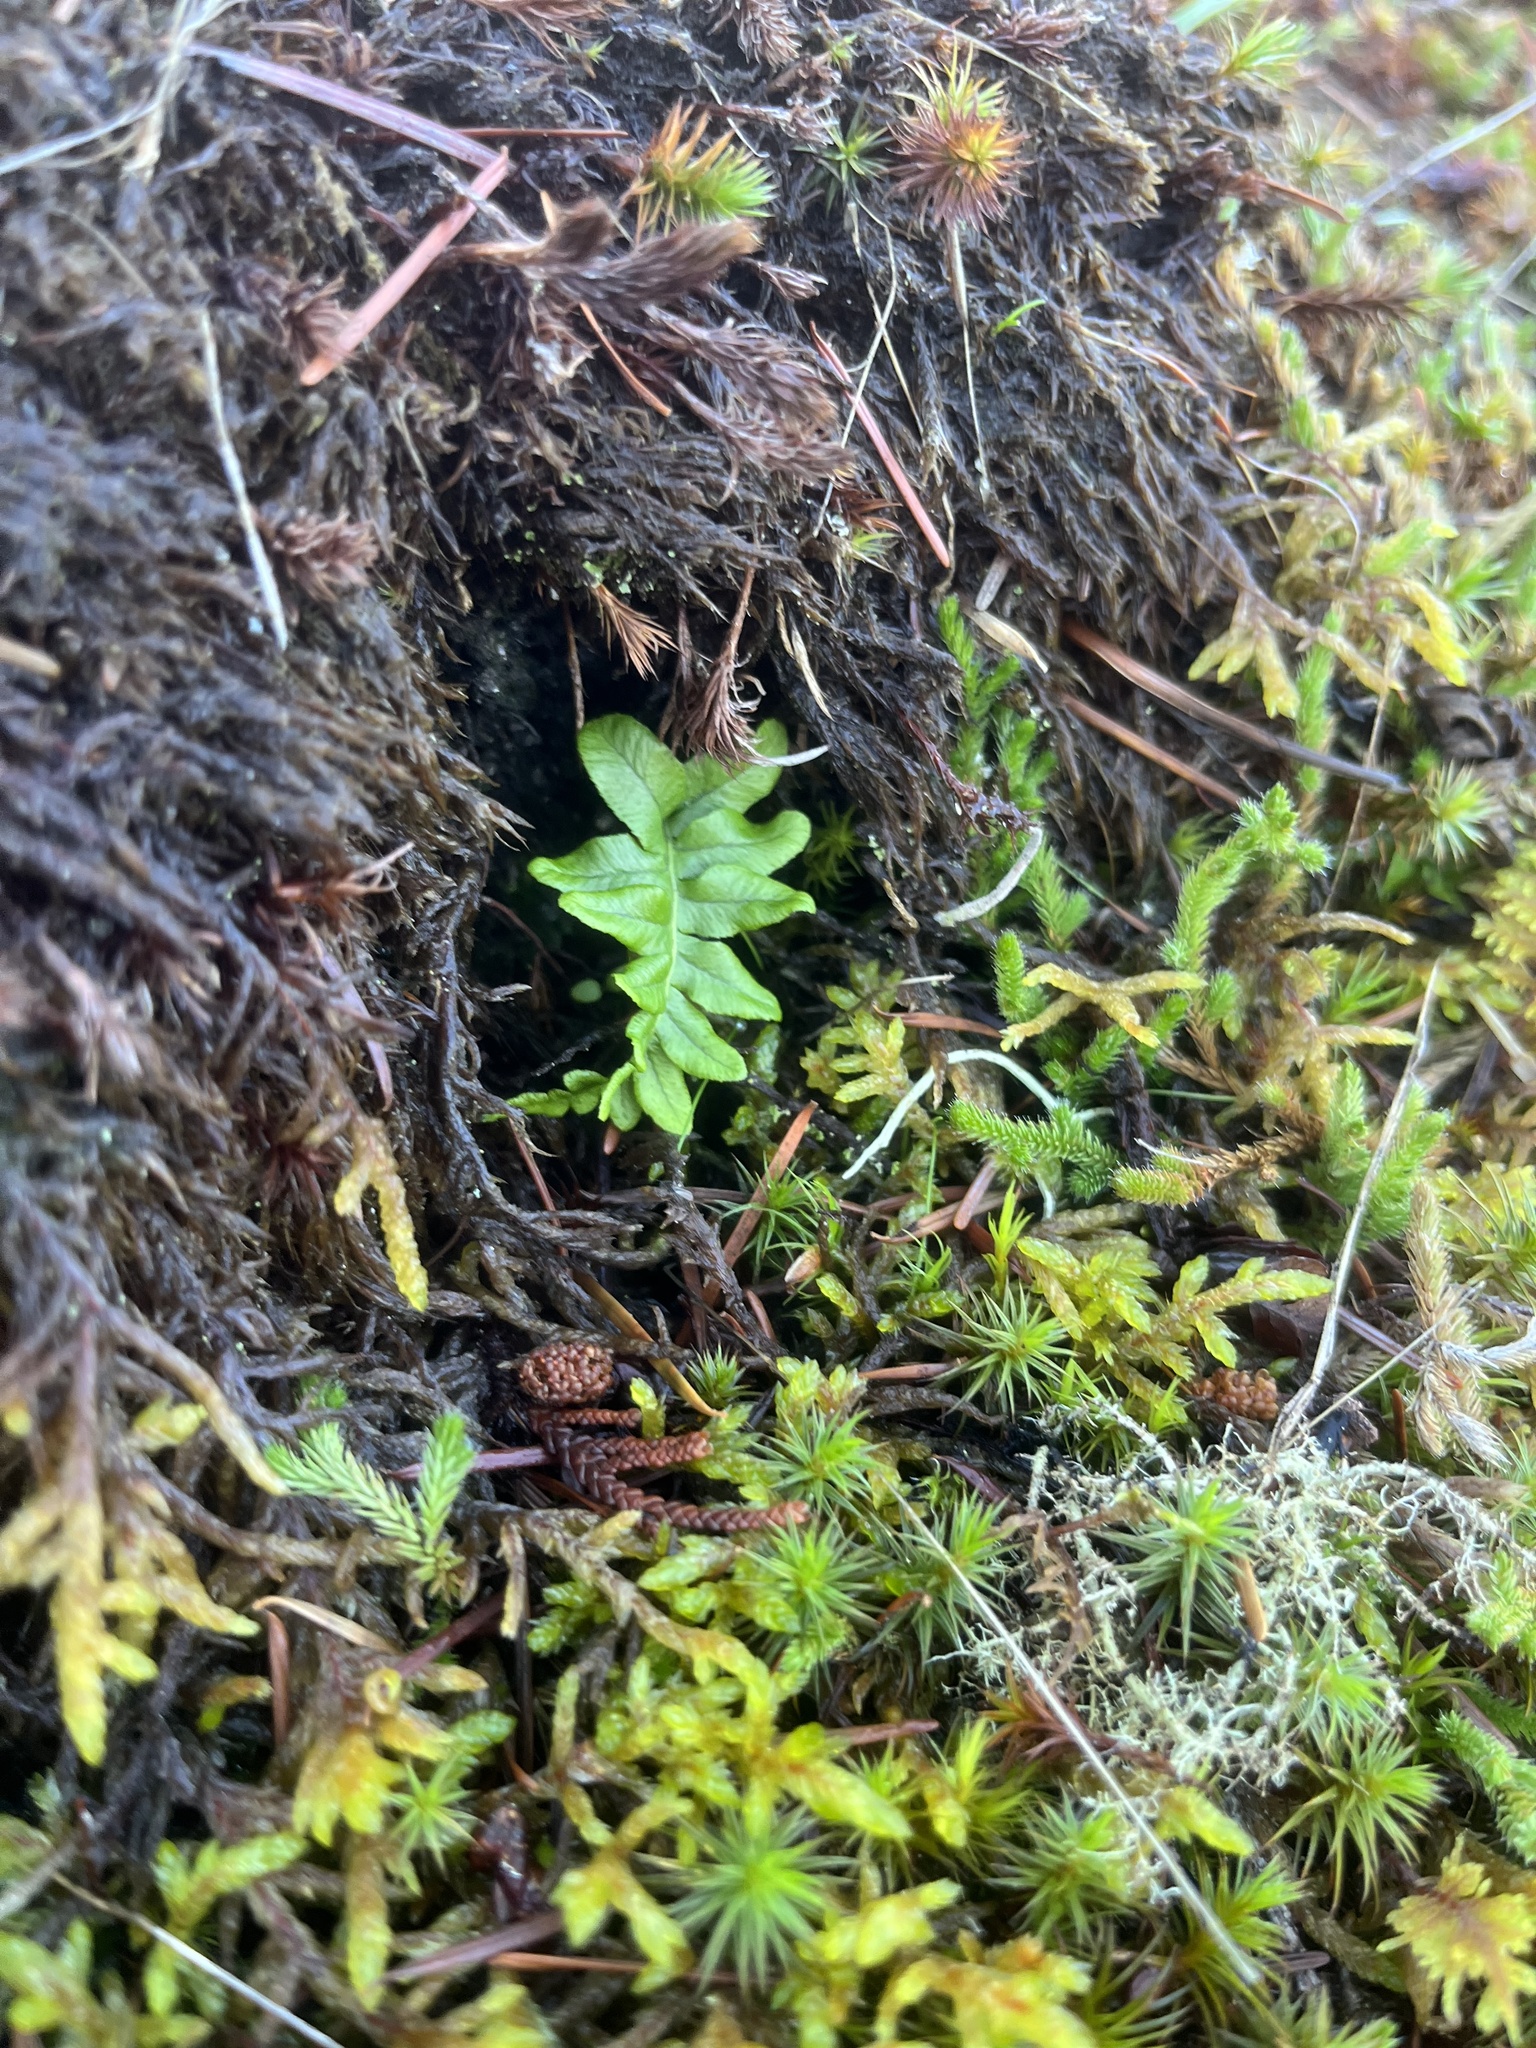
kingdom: Plantae
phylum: Tracheophyta
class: Polypodiopsida
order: Polypodiales
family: Polypodiaceae
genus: Polypodium
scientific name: Polypodium glycyrrhiza
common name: Licorice fern
